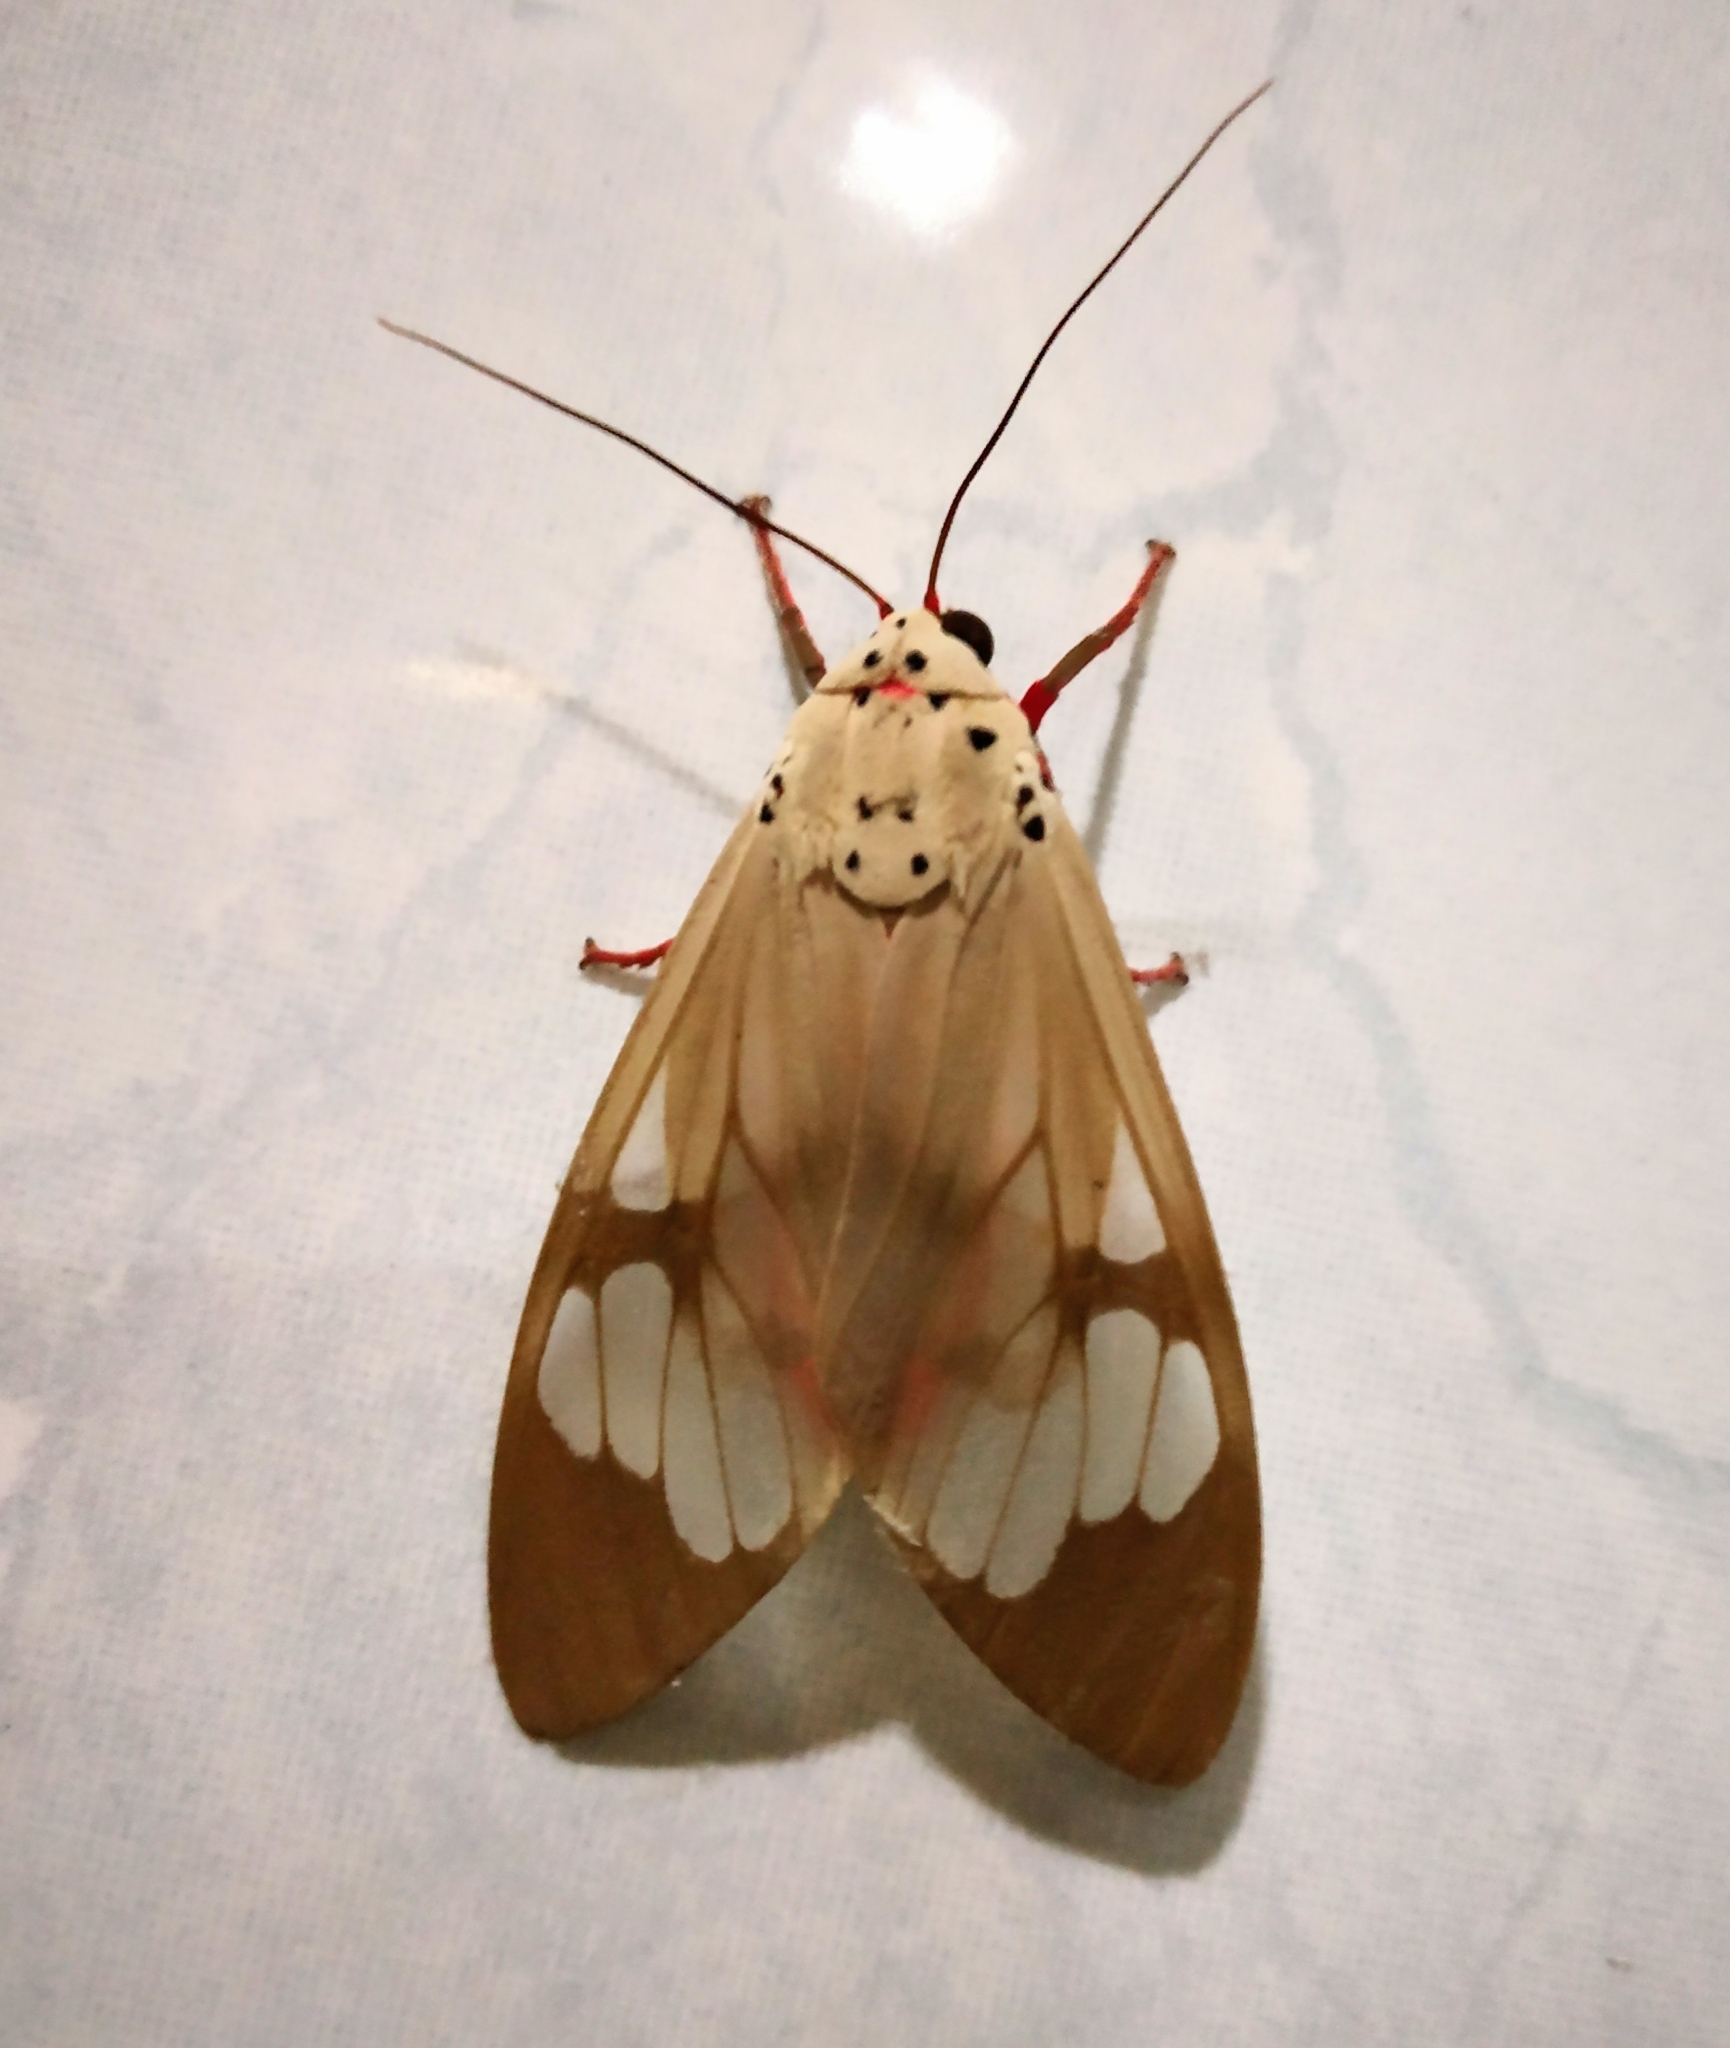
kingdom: Animalia
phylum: Arthropoda
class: Insecta
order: Lepidoptera
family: Erebidae
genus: Amerila
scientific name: Amerila astreus
